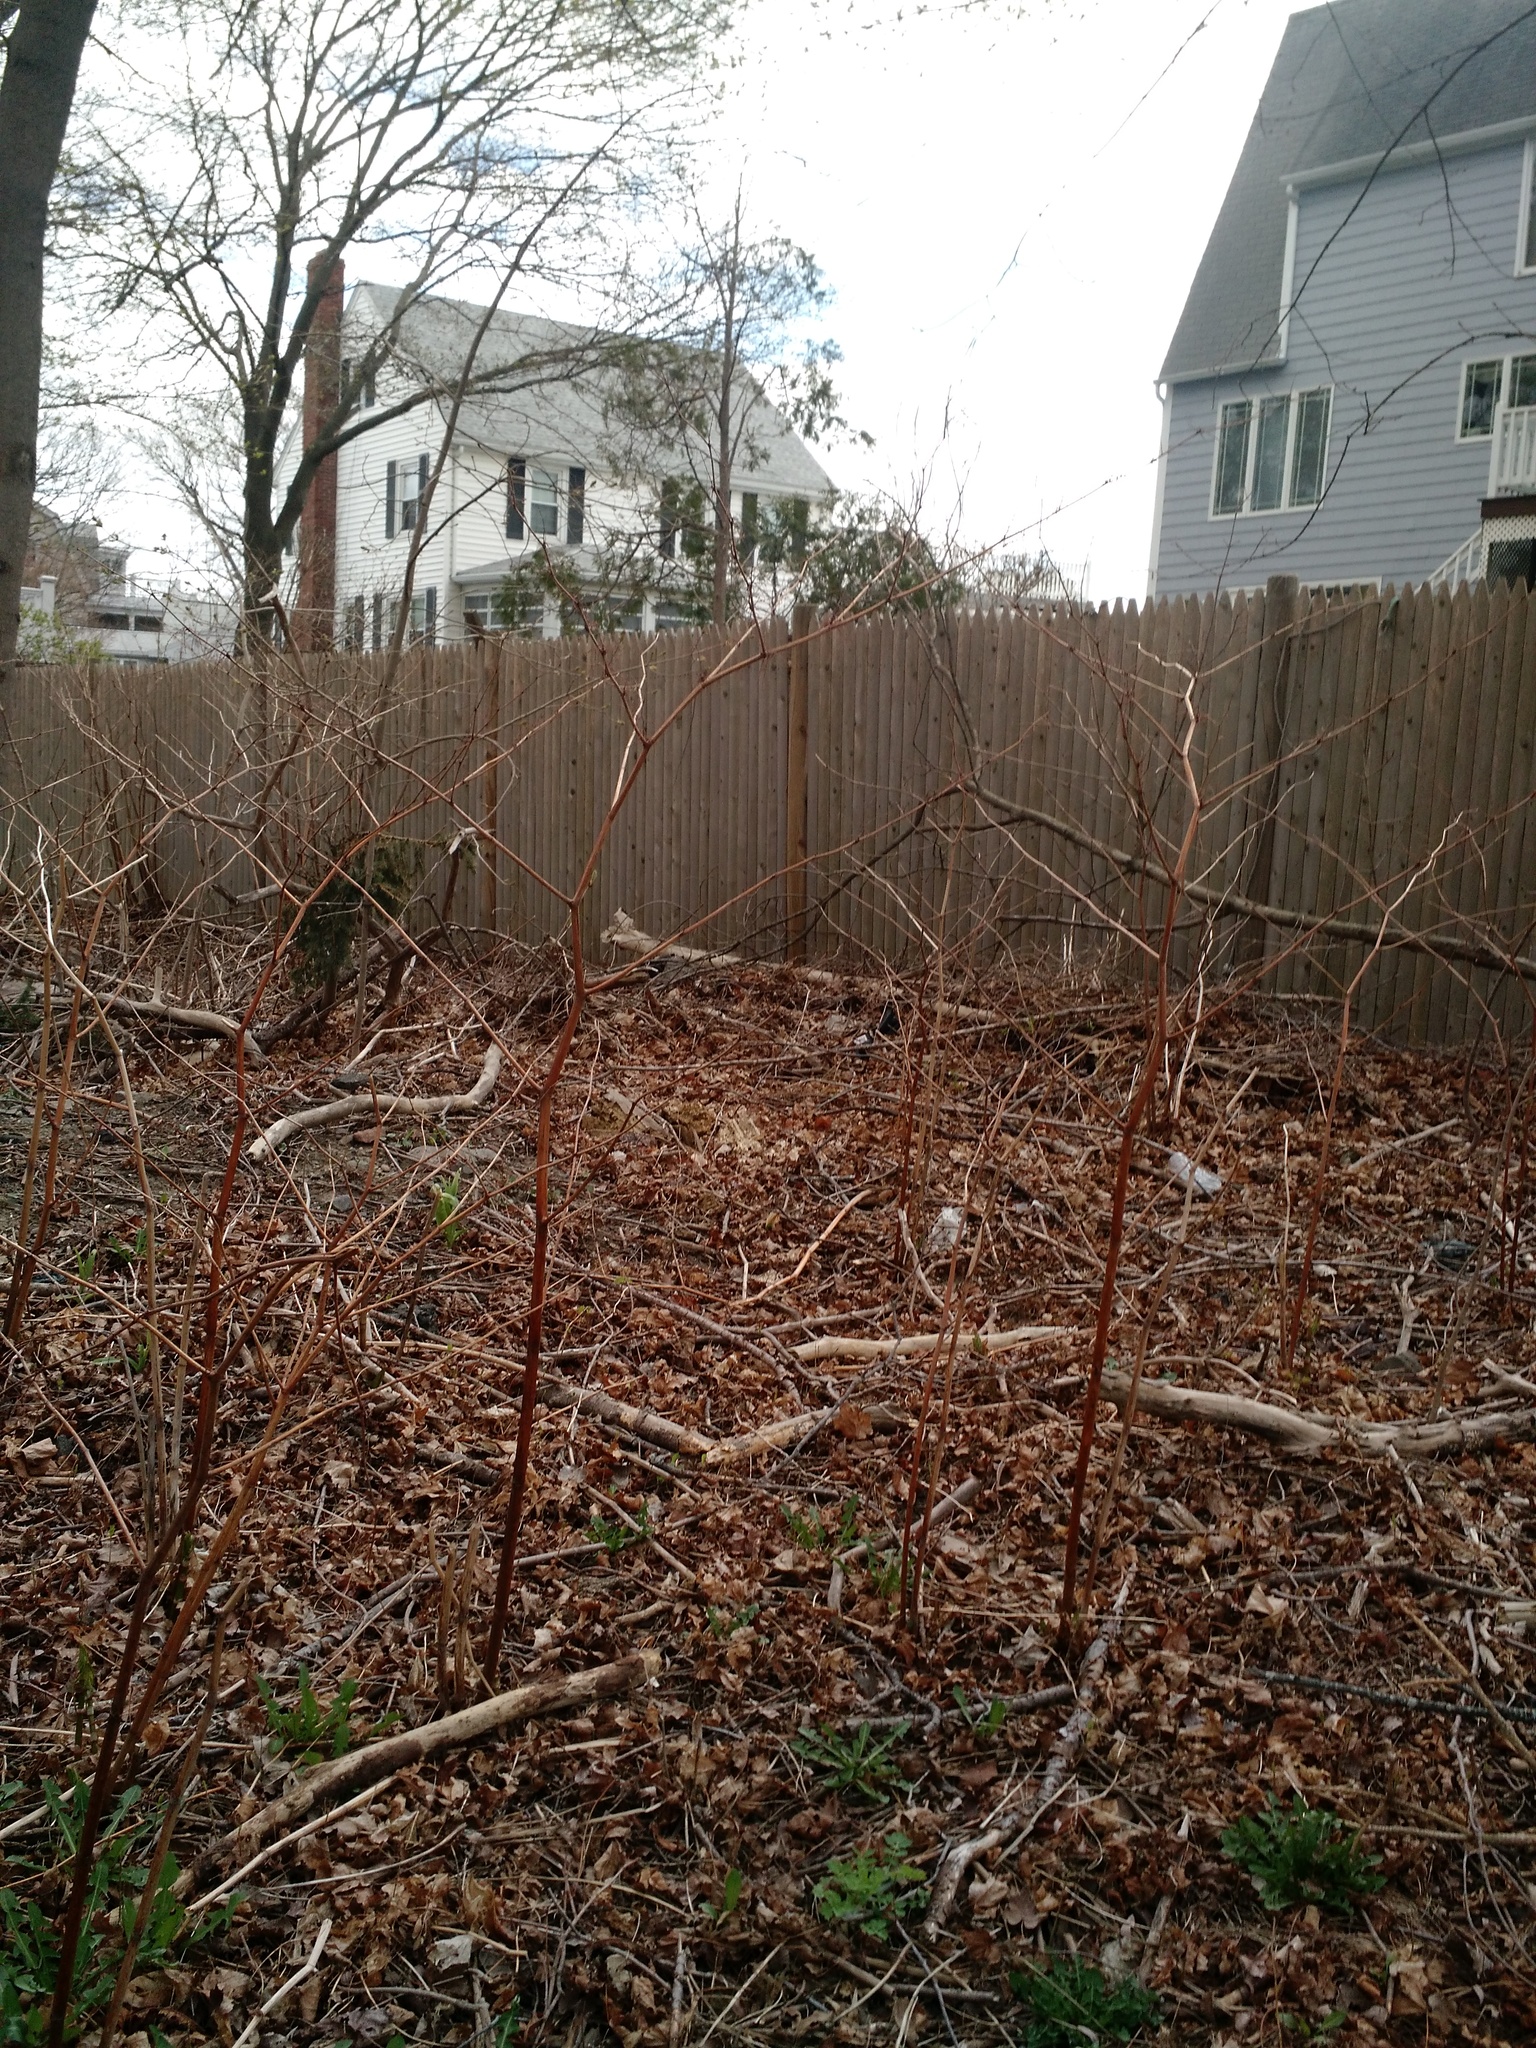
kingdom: Plantae
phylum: Tracheophyta
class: Magnoliopsida
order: Caryophyllales
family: Polygonaceae
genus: Reynoutria
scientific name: Reynoutria japonica
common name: Japanese knotweed
